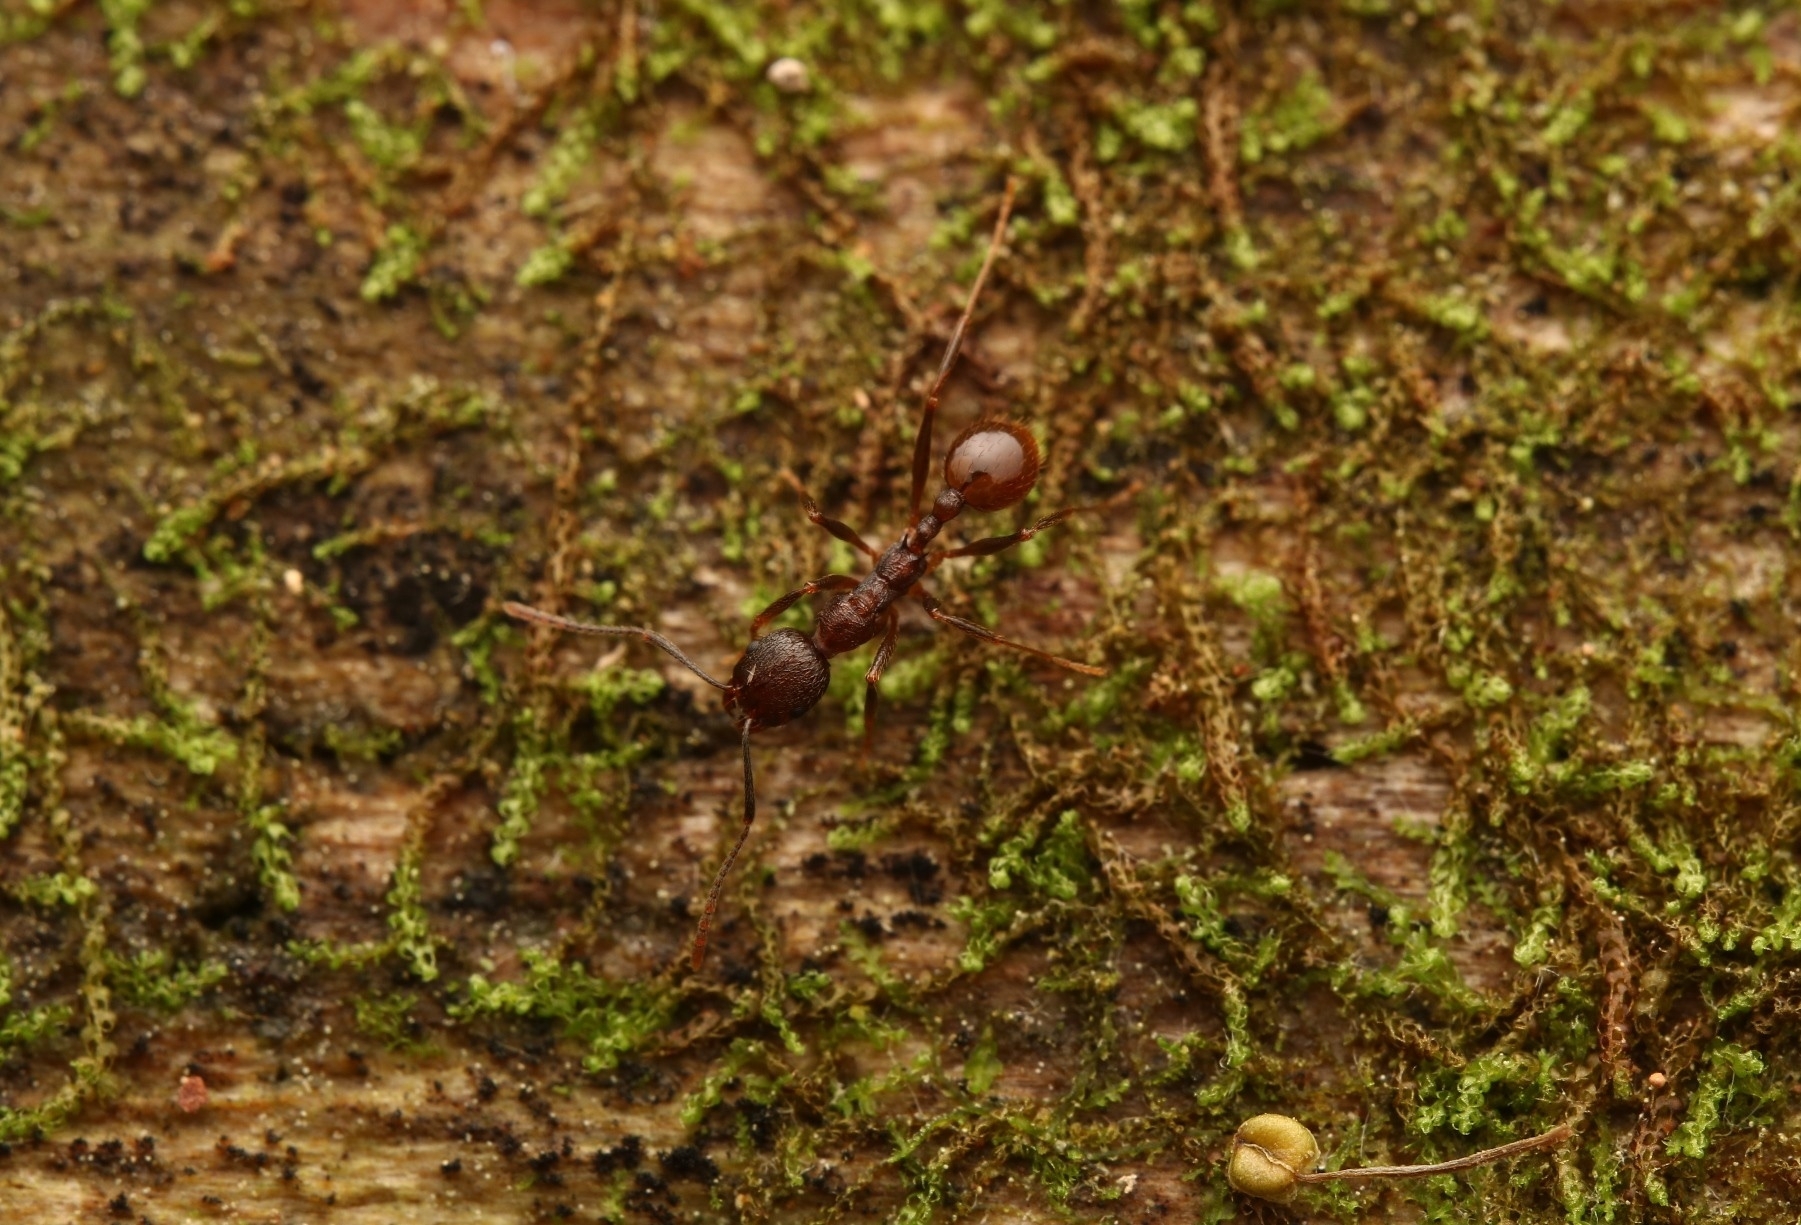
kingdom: Animalia
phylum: Arthropoda
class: Insecta
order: Hymenoptera
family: Formicidae
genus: Aphaenogaster
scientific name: Aphaenogaster fulva
